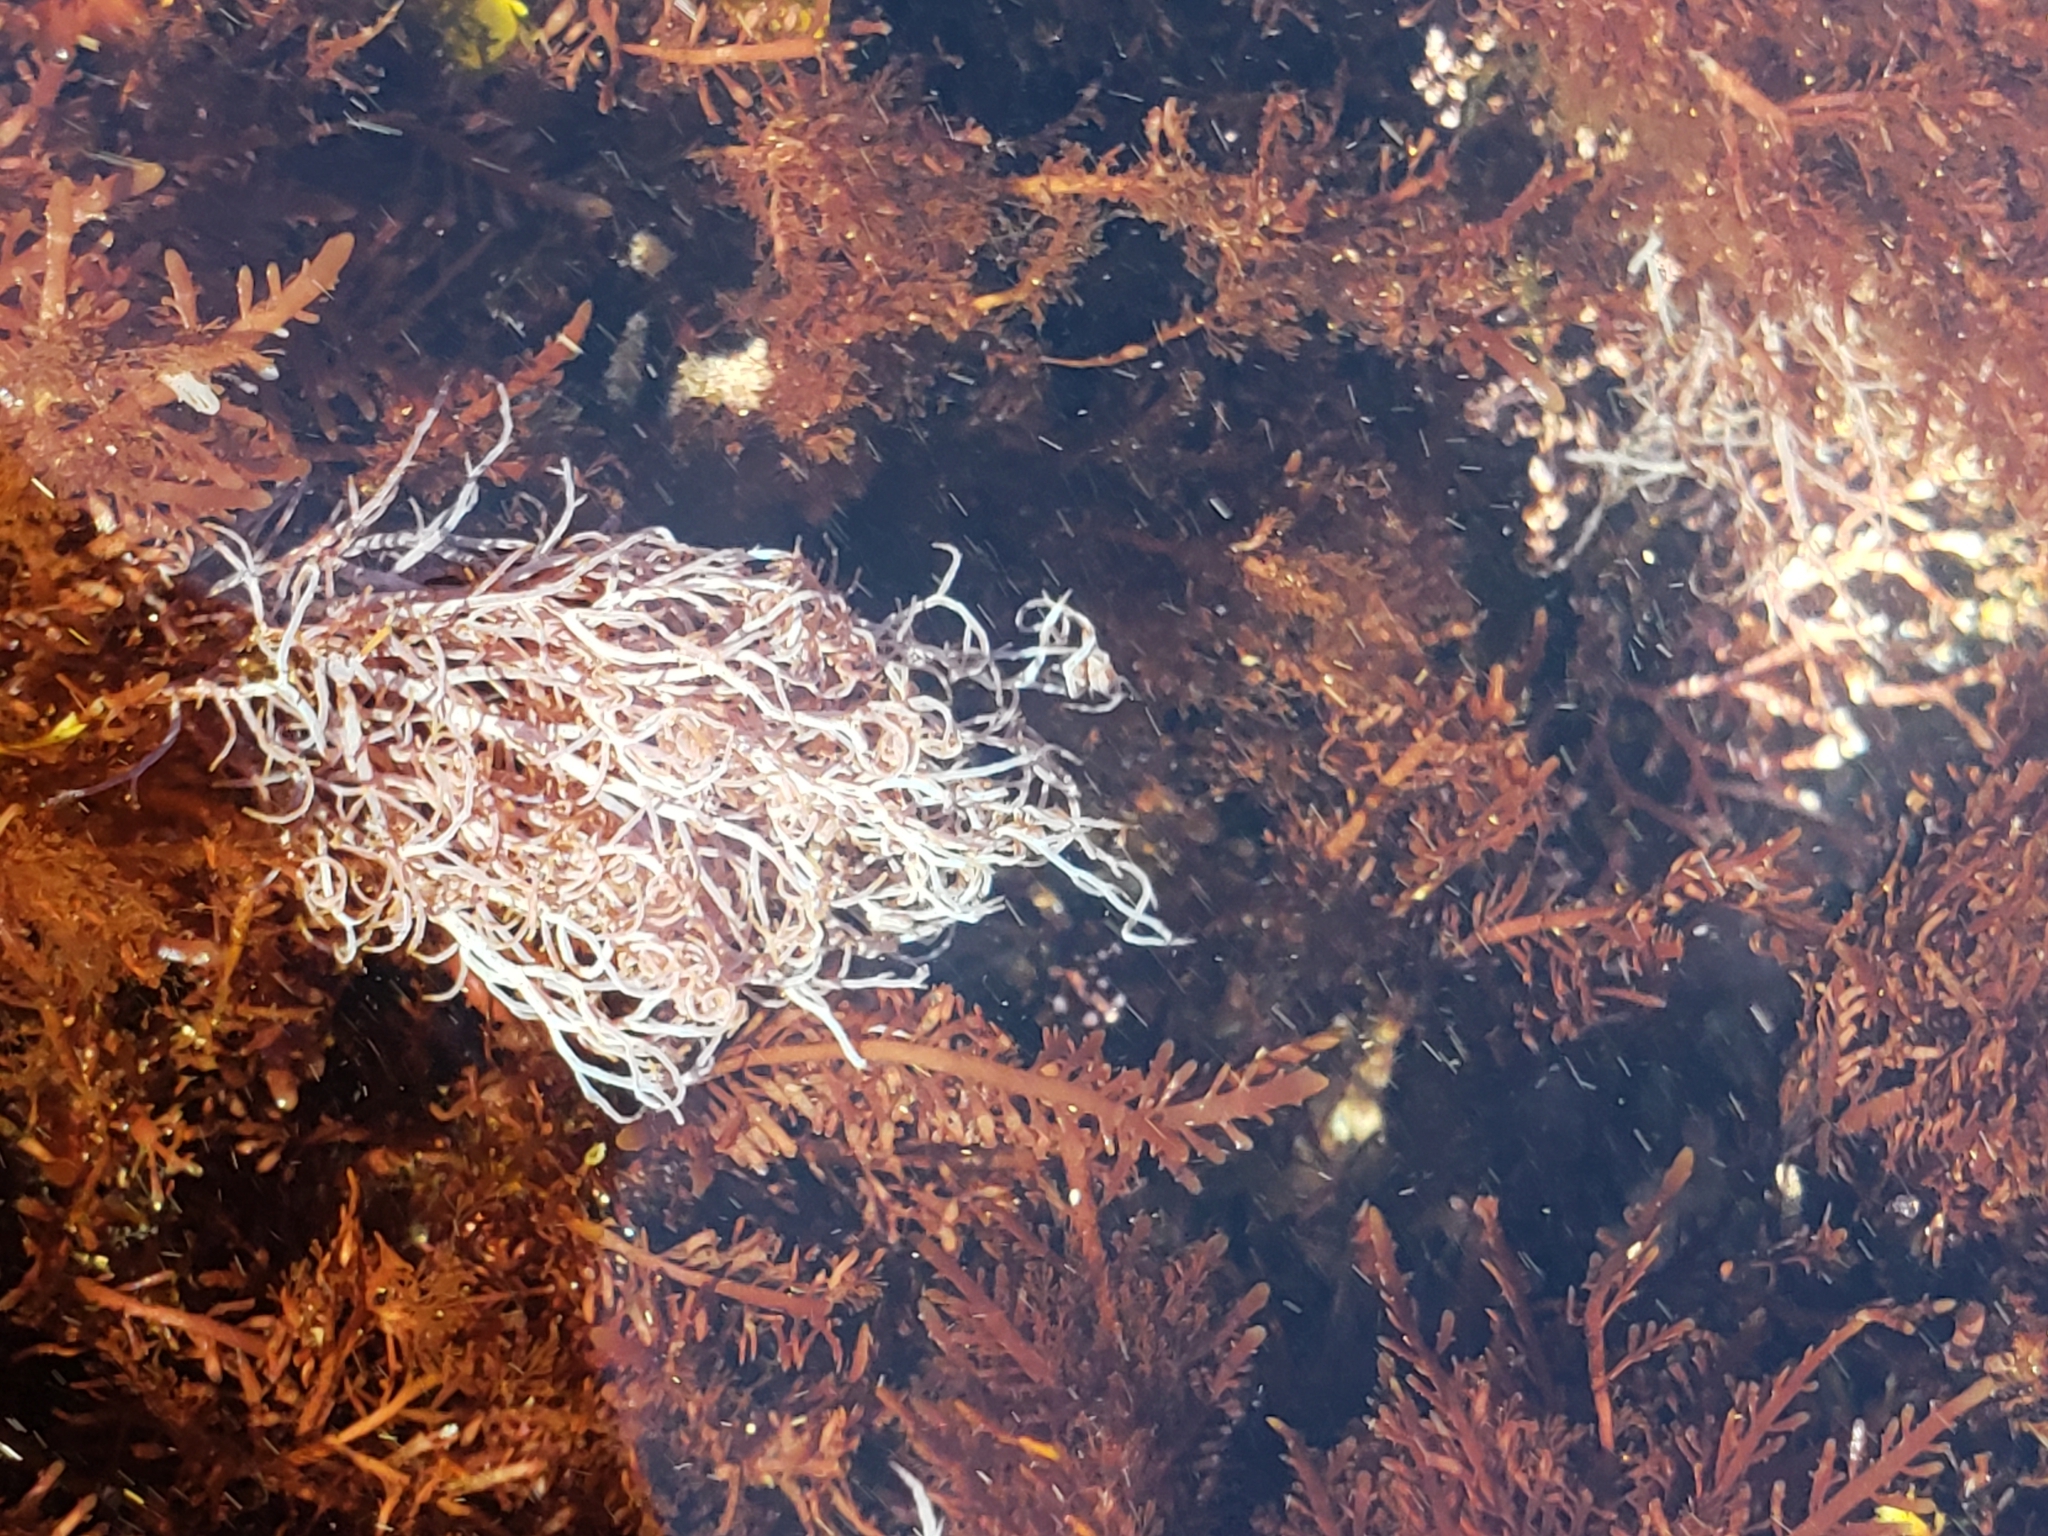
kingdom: Plantae
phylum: Rhodophyta
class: Florideophyceae
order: Ceramiales
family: Rhodomelaceae
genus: Chondria
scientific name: Chondria acrorhizophora
